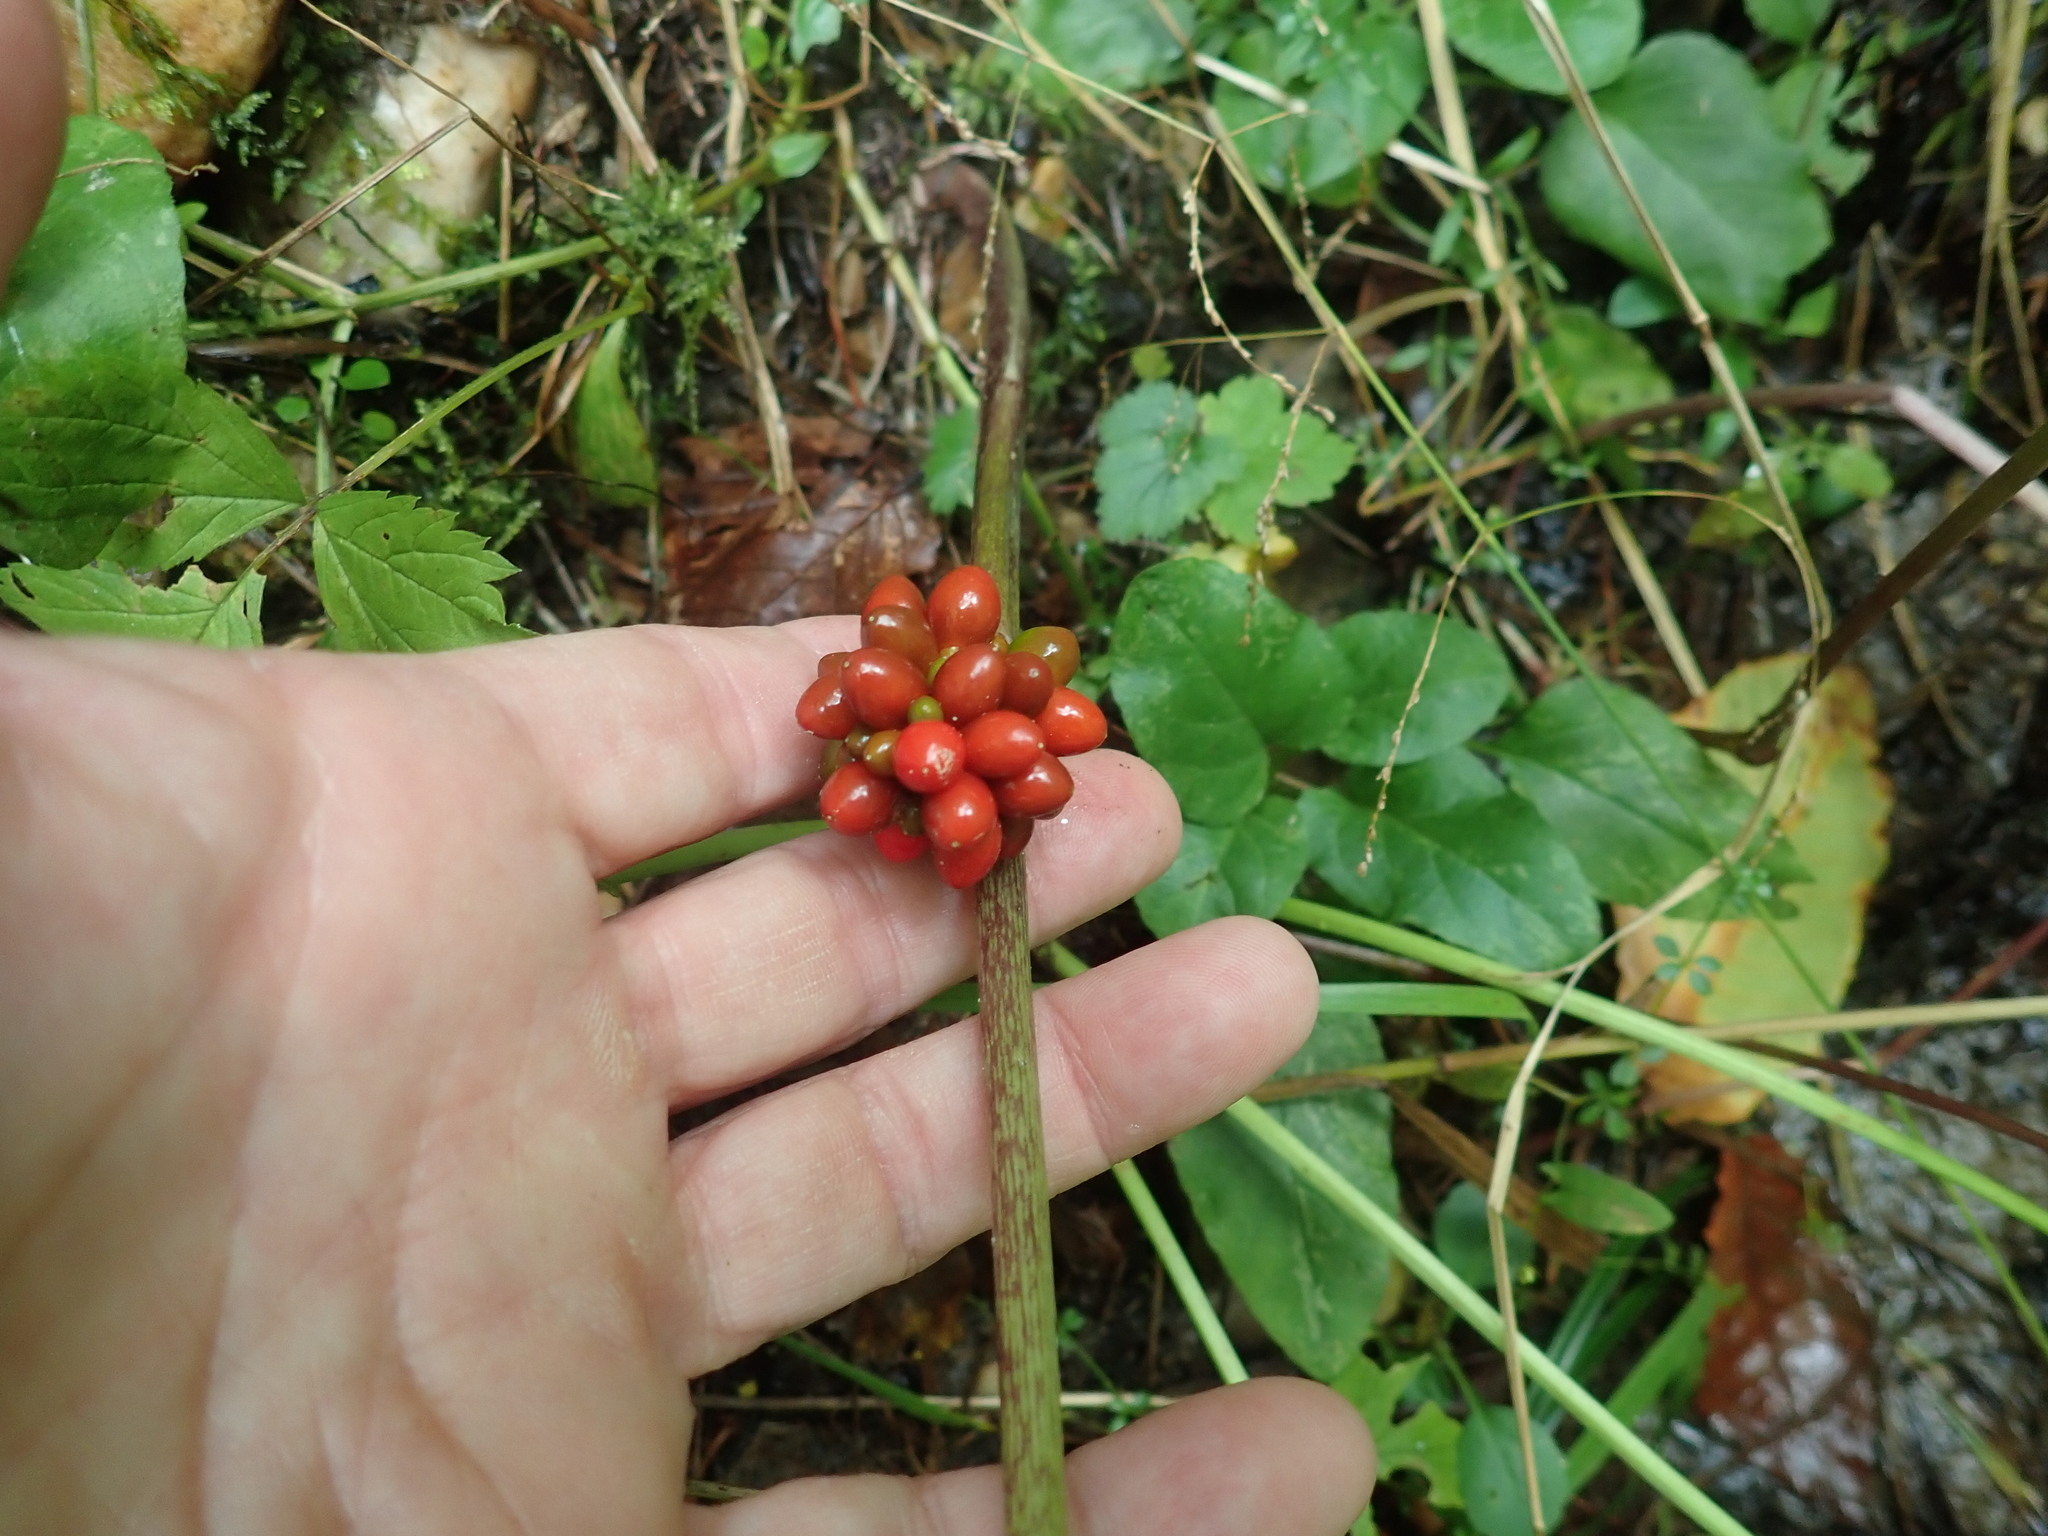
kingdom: Plantae
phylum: Tracheophyta
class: Liliopsida
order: Alismatales
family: Araceae
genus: Arisaema
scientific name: Arisaema triphyllum
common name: Jack-in-the-pulpit
